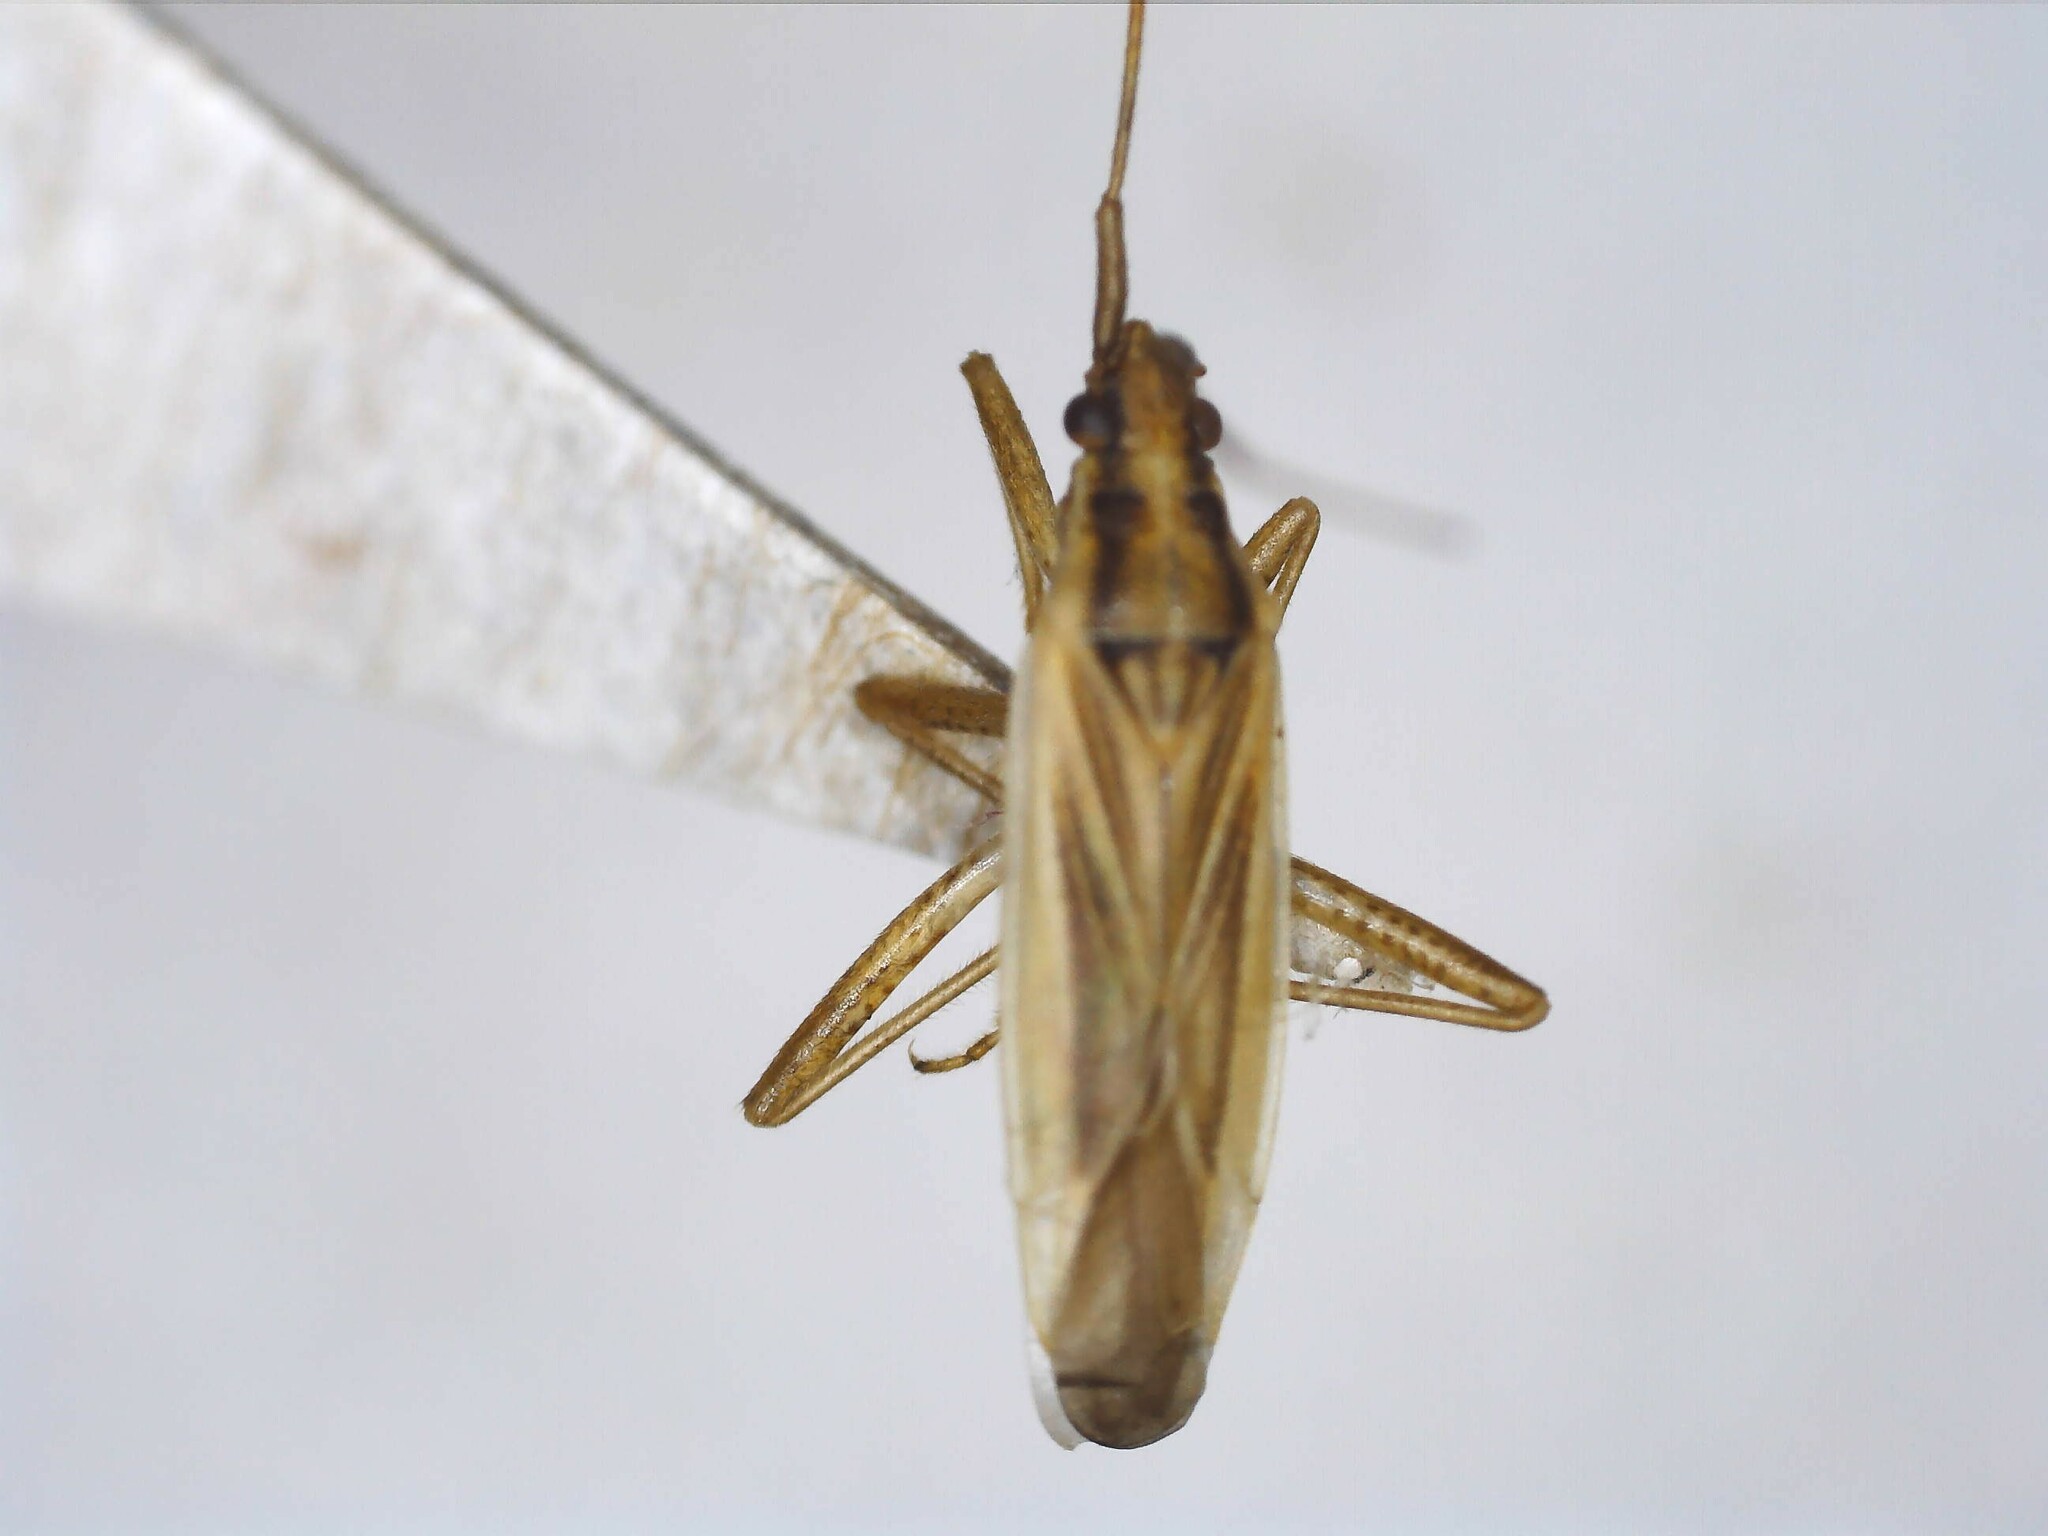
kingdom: Animalia
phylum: Arthropoda
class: Insecta
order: Hemiptera
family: Miridae
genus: Stenodema
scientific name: Stenodema holsata
